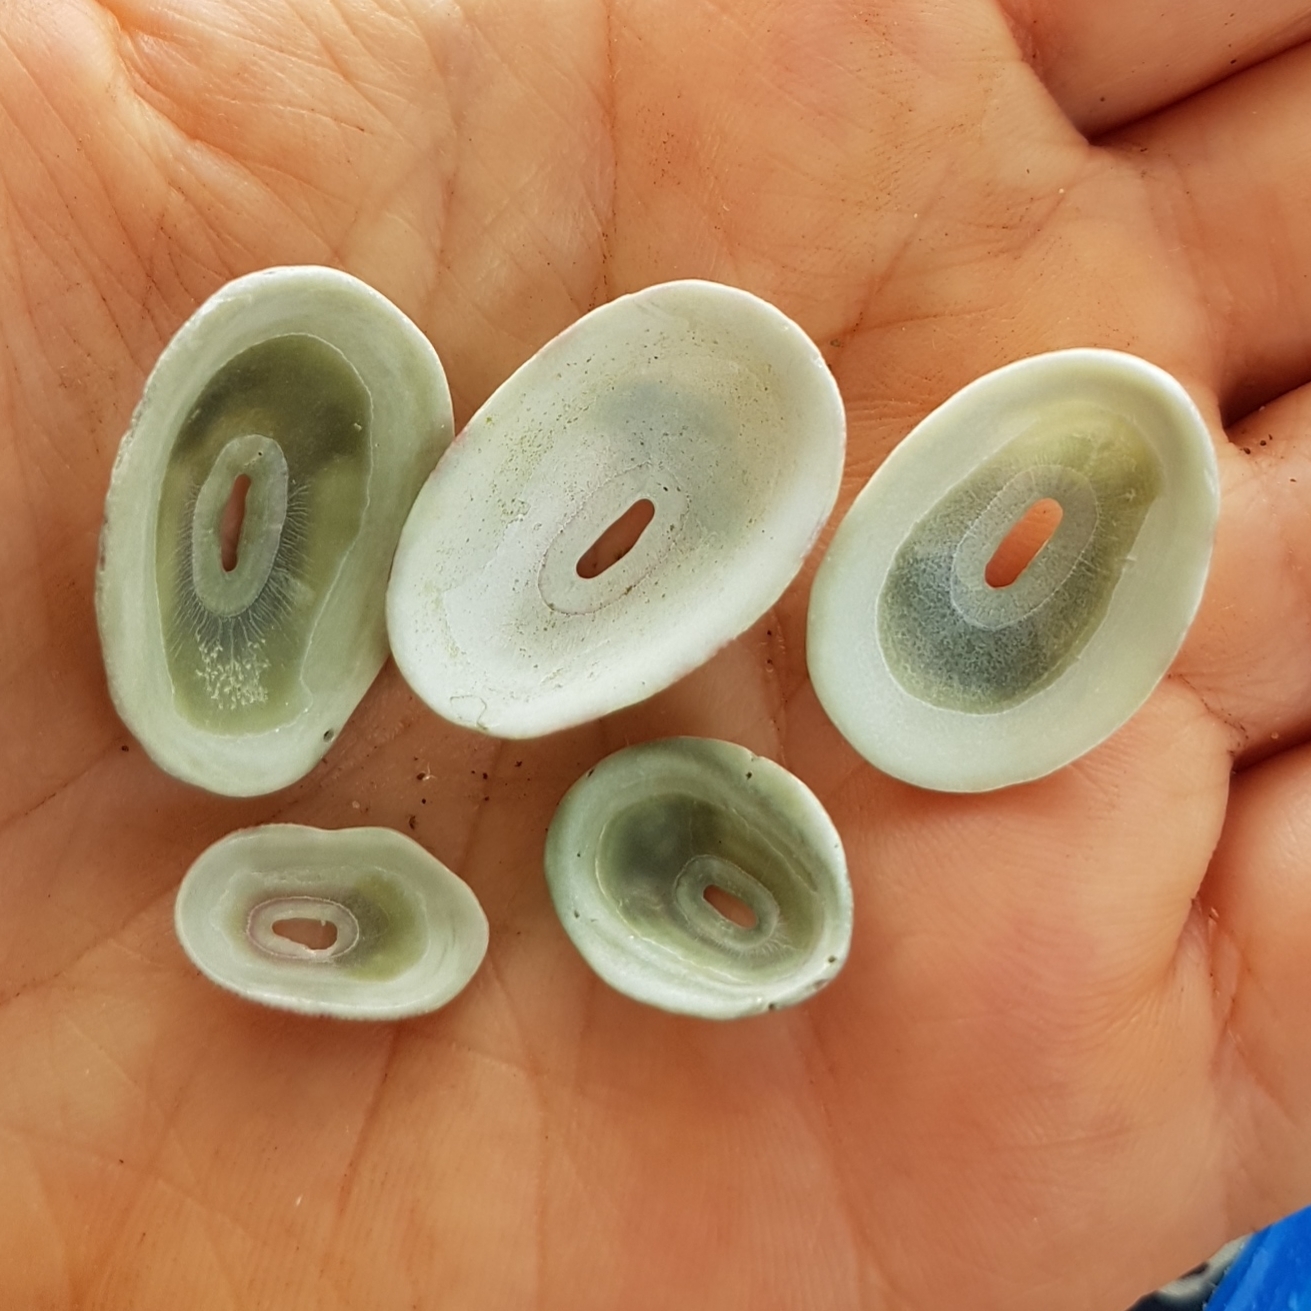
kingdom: Animalia
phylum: Mollusca
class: Gastropoda
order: Lepetellida
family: Fissurellidae
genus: Fissurella
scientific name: Fissurella virescens
